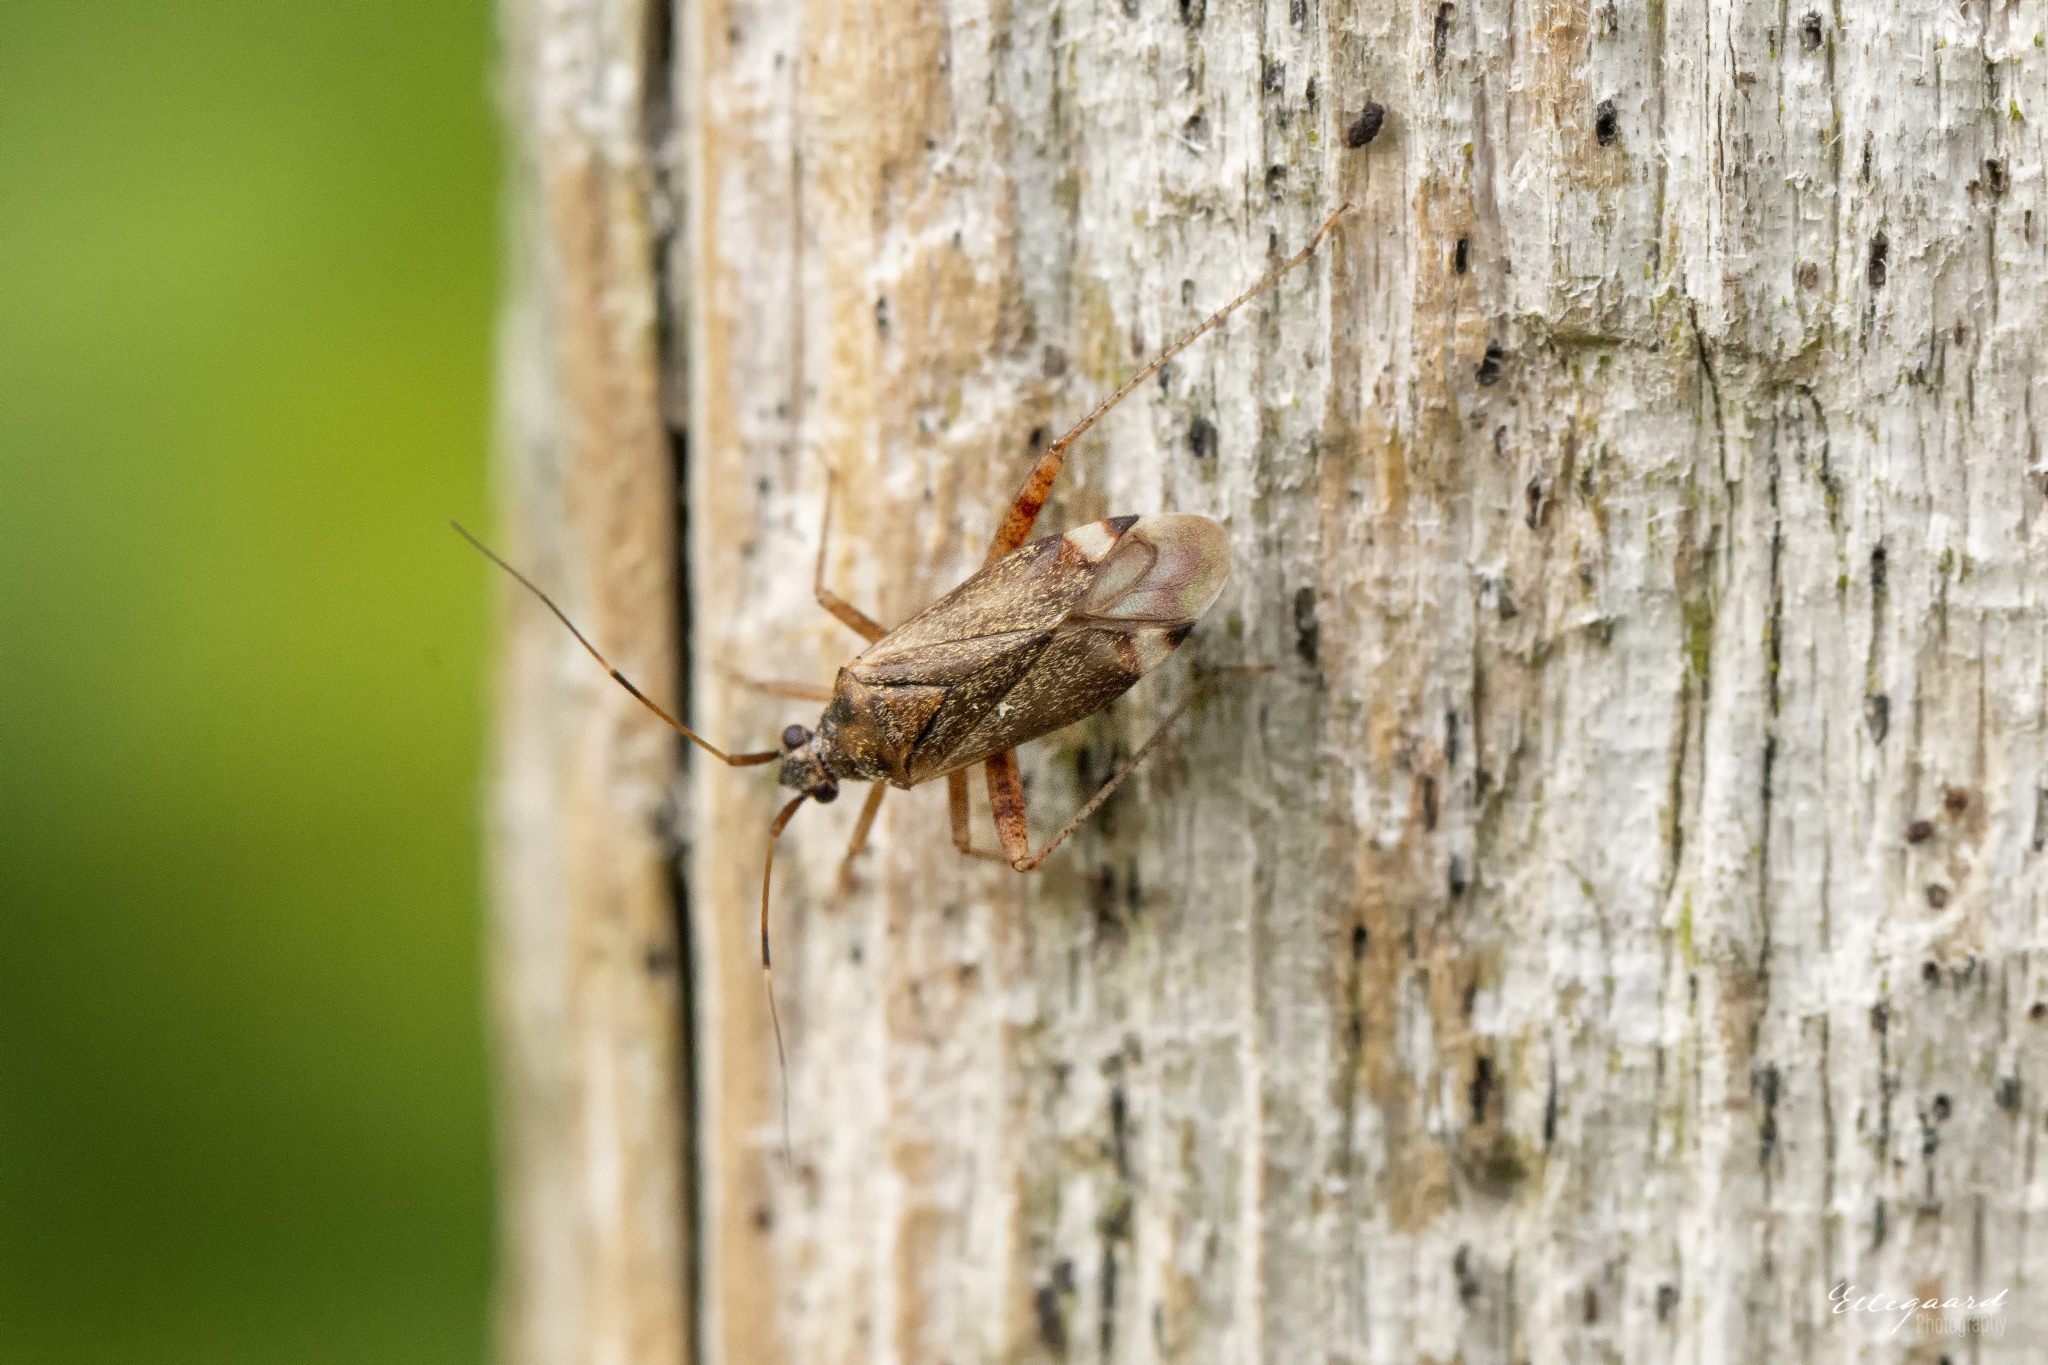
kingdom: Animalia
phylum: Arthropoda
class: Insecta
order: Hemiptera
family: Miridae
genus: Closterotomus
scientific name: Closterotomus fulvomaculatus
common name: Spotted plant bug
